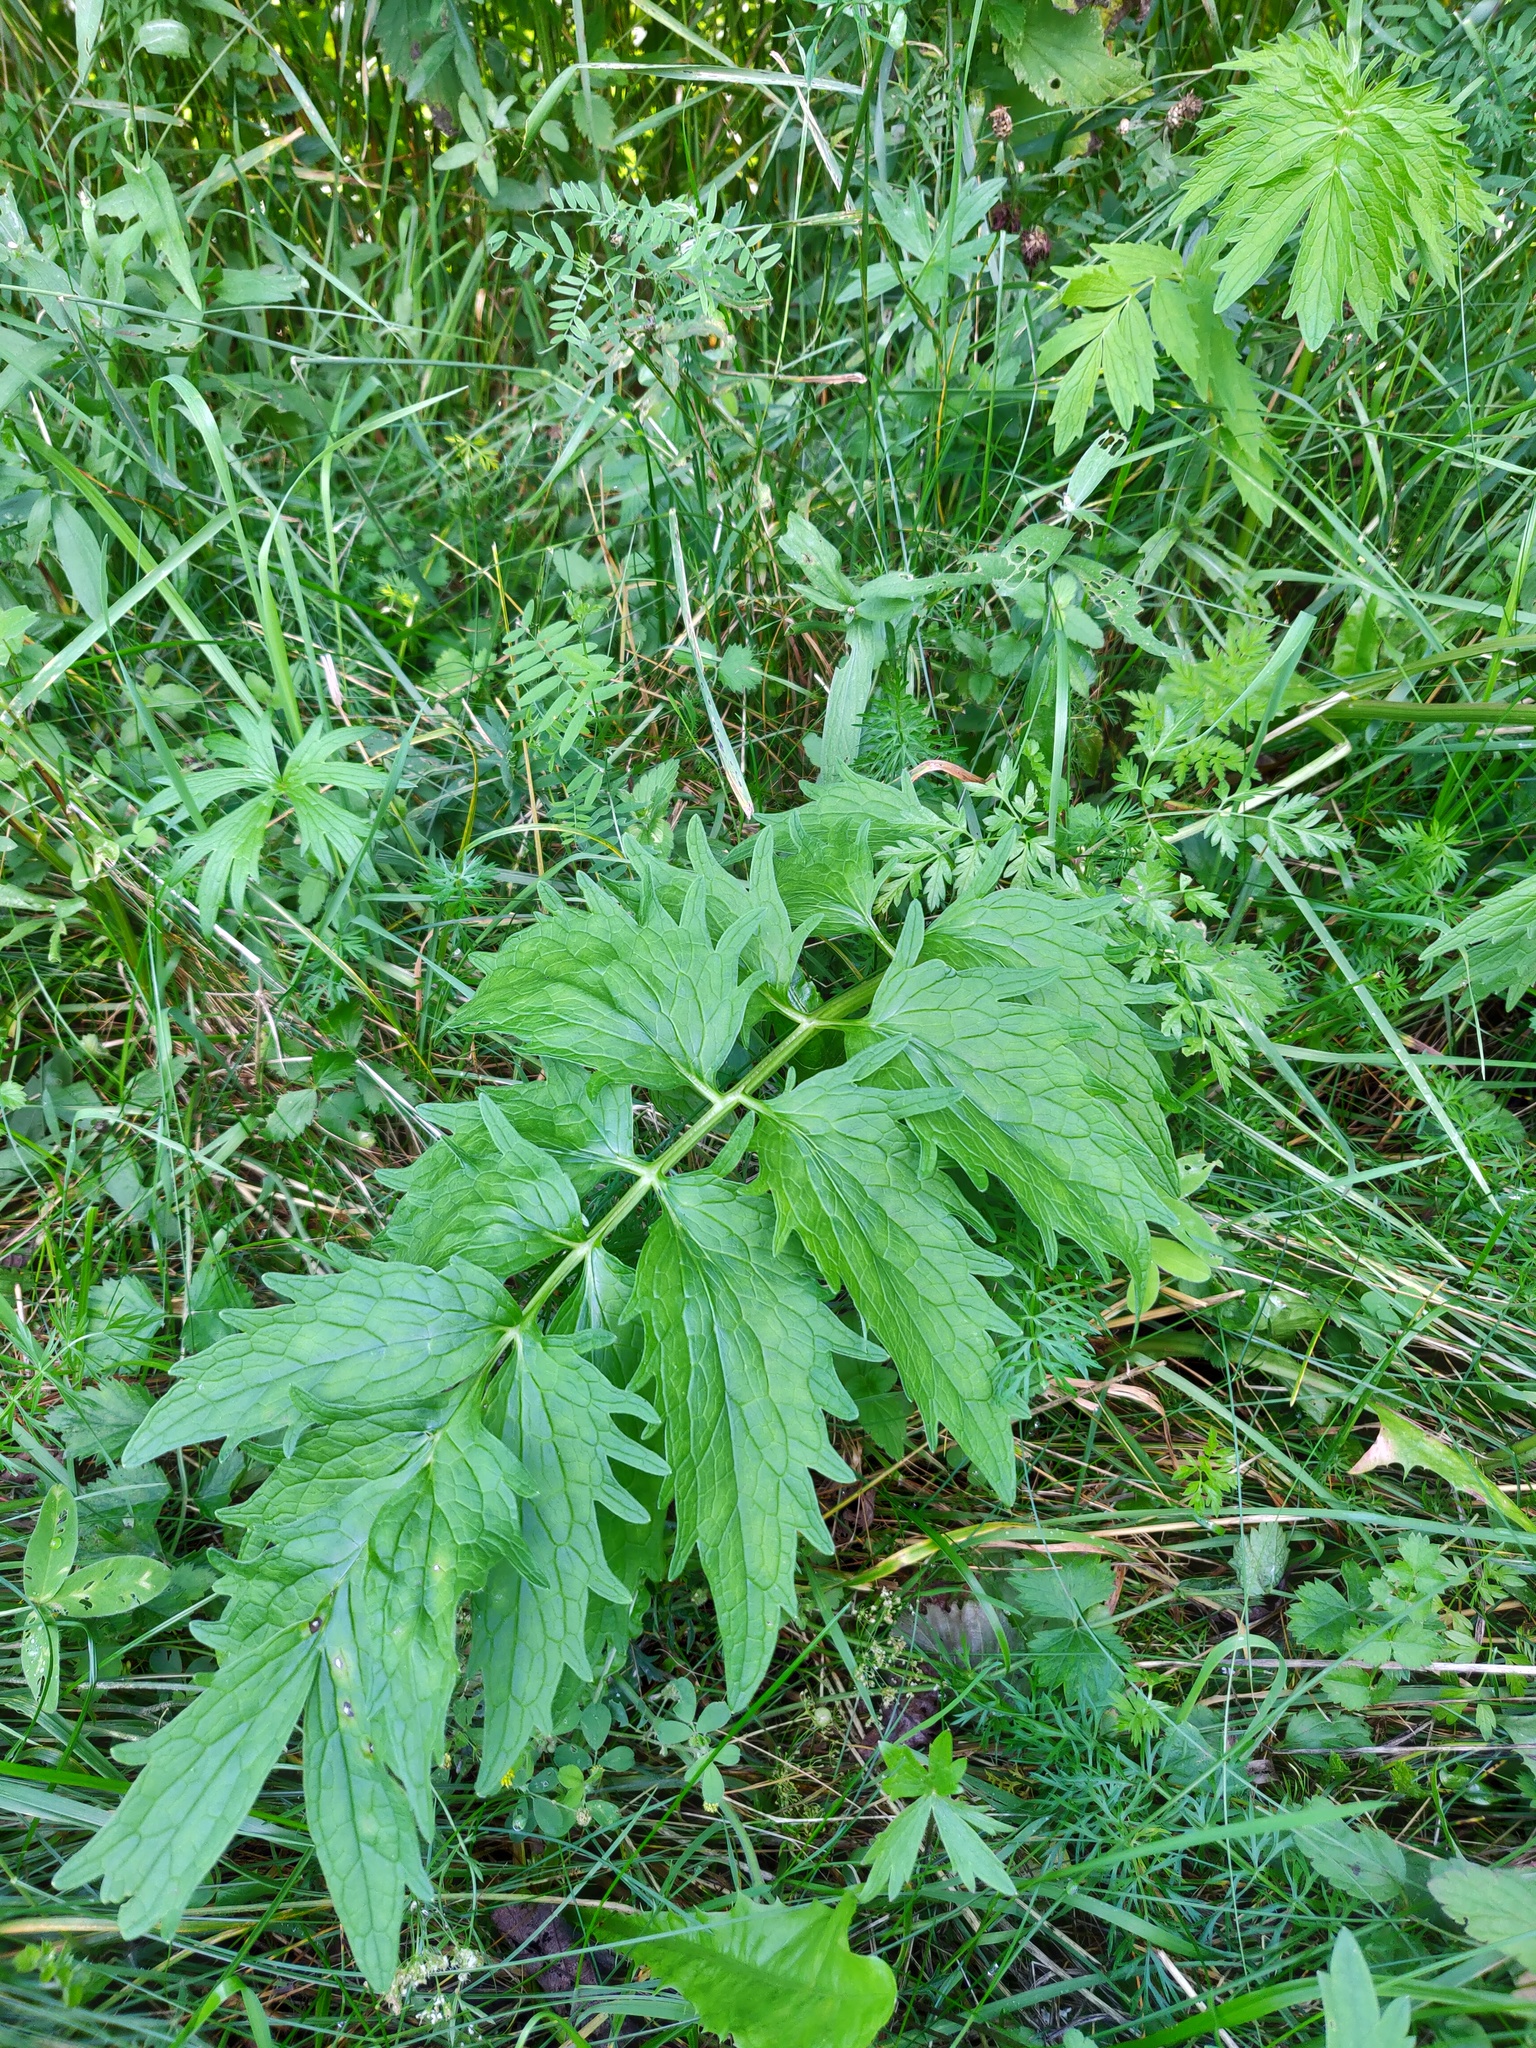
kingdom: Plantae
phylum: Tracheophyta
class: Magnoliopsida
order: Dipsacales
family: Caprifoliaceae
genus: Valeriana
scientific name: Valeriana officinalis
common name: Common valerian
